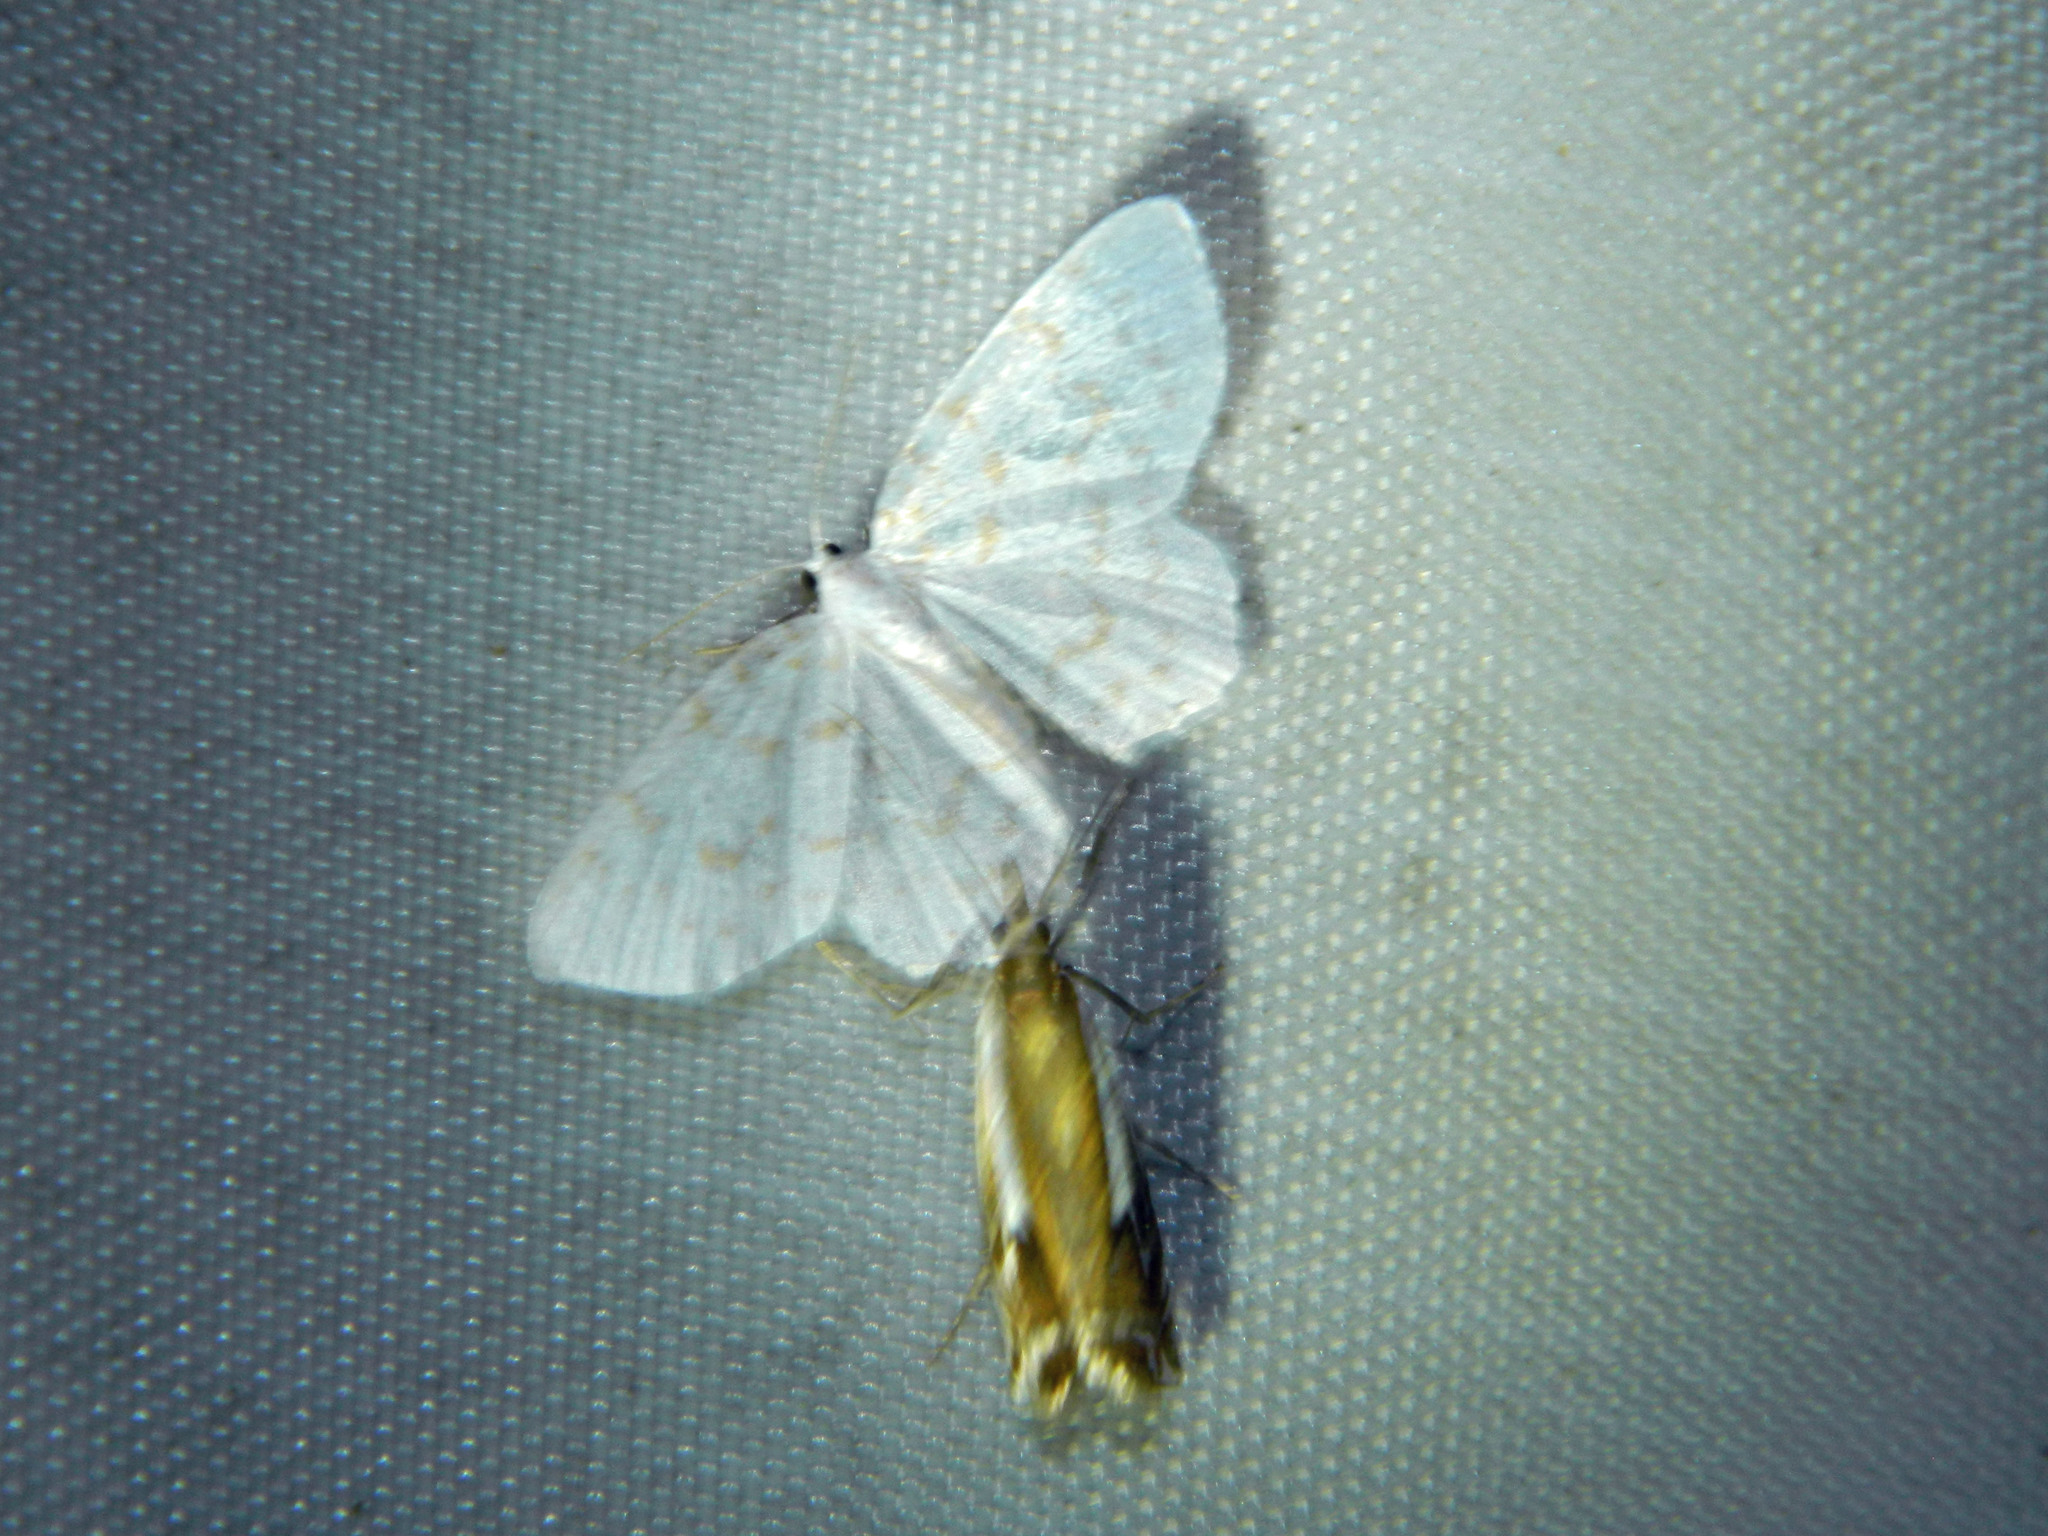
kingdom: Animalia
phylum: Arthropoda
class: Insecta
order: Lepidoptera
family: Geometridae
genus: Hydrelia
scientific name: Hydrelia albifera
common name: Fragile white carpet
